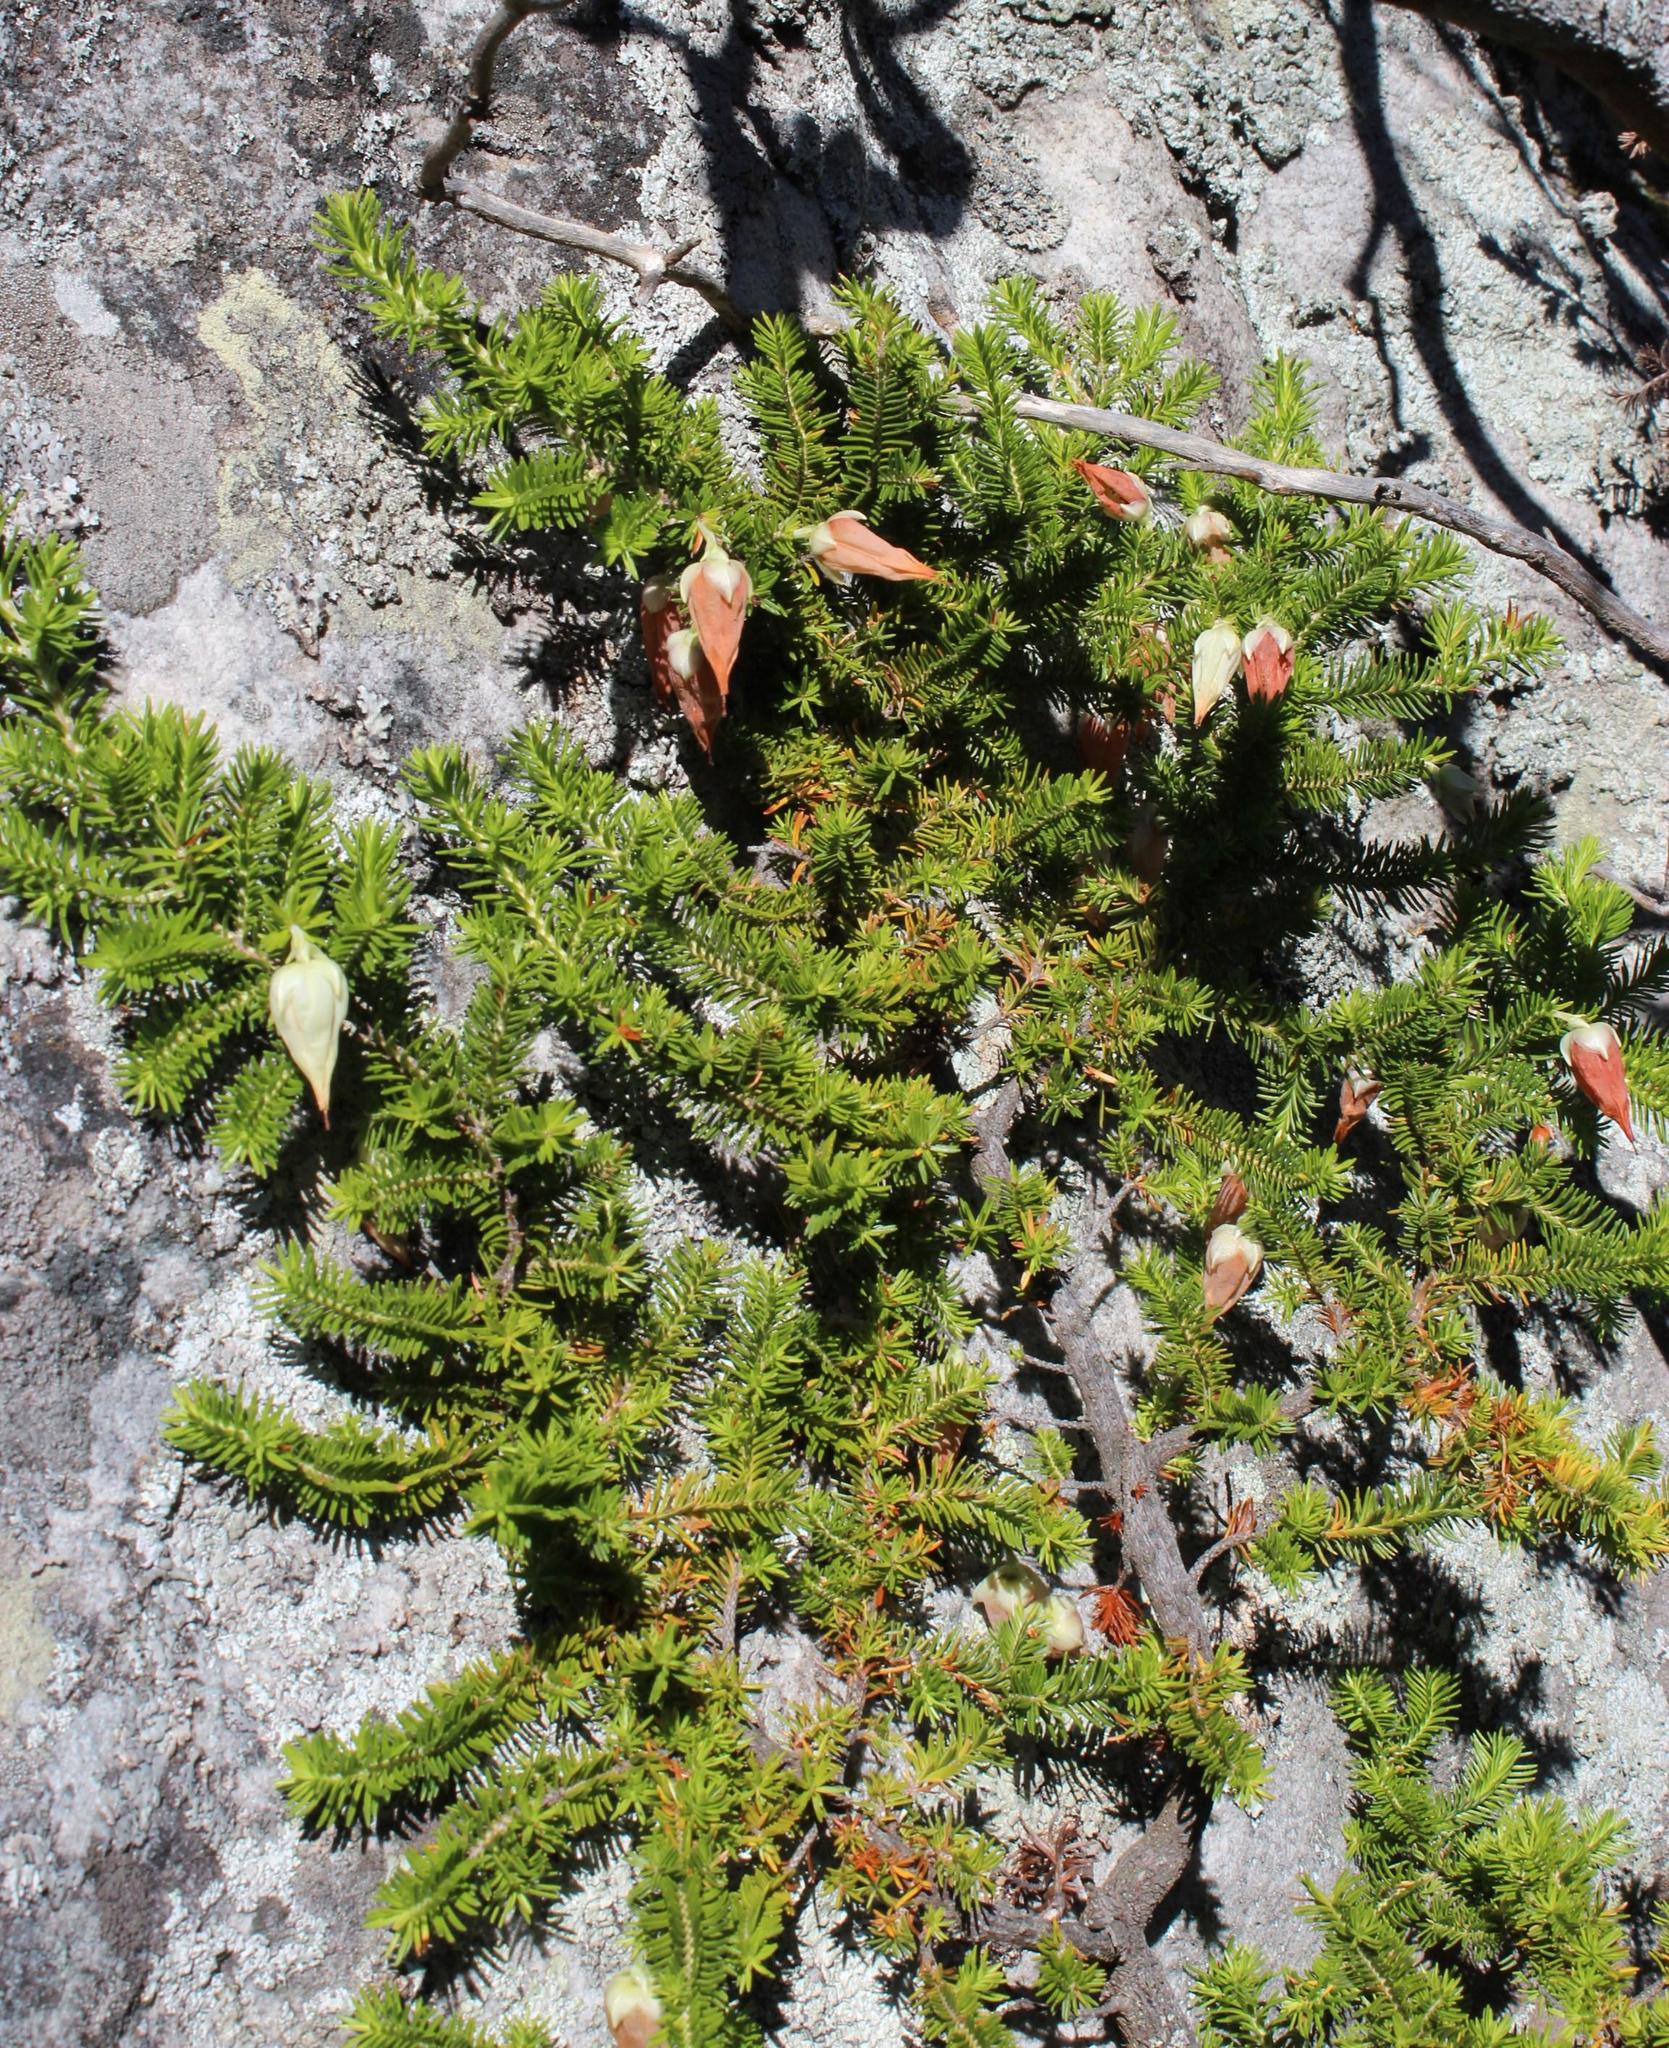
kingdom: Plantae
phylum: Tracheophyta
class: Magnoliopsida
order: Ericales
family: Ericaceae
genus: Erica
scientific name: Erica halicacaba
